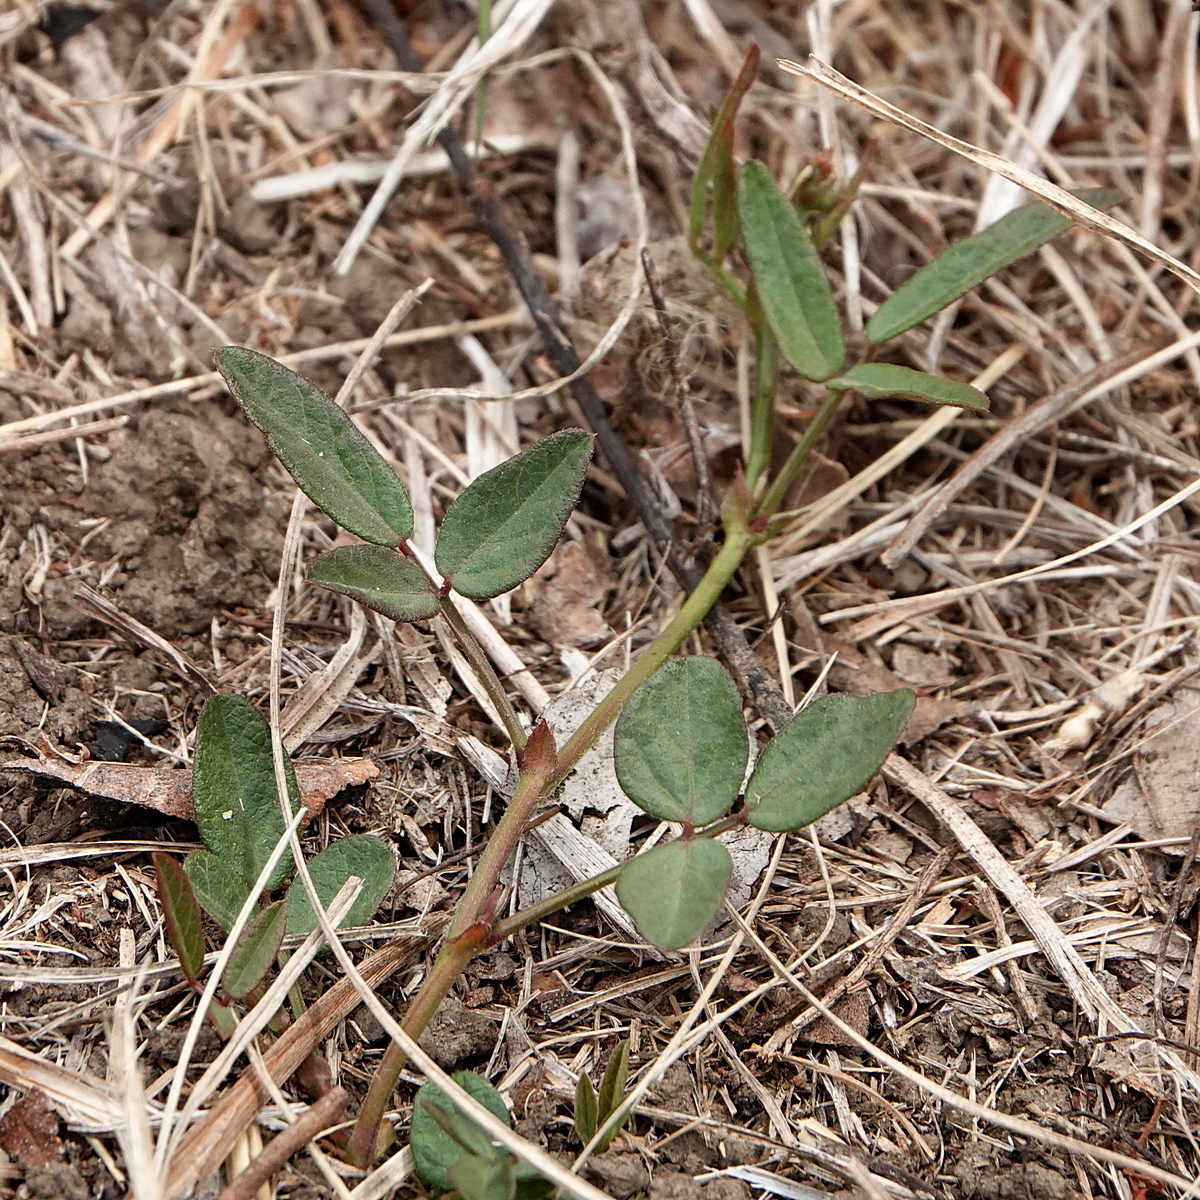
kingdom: Plantae
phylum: Tracheophyta
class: Magnoliopsida
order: Fabales
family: Fabaceae
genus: Grona
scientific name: Grona varians
